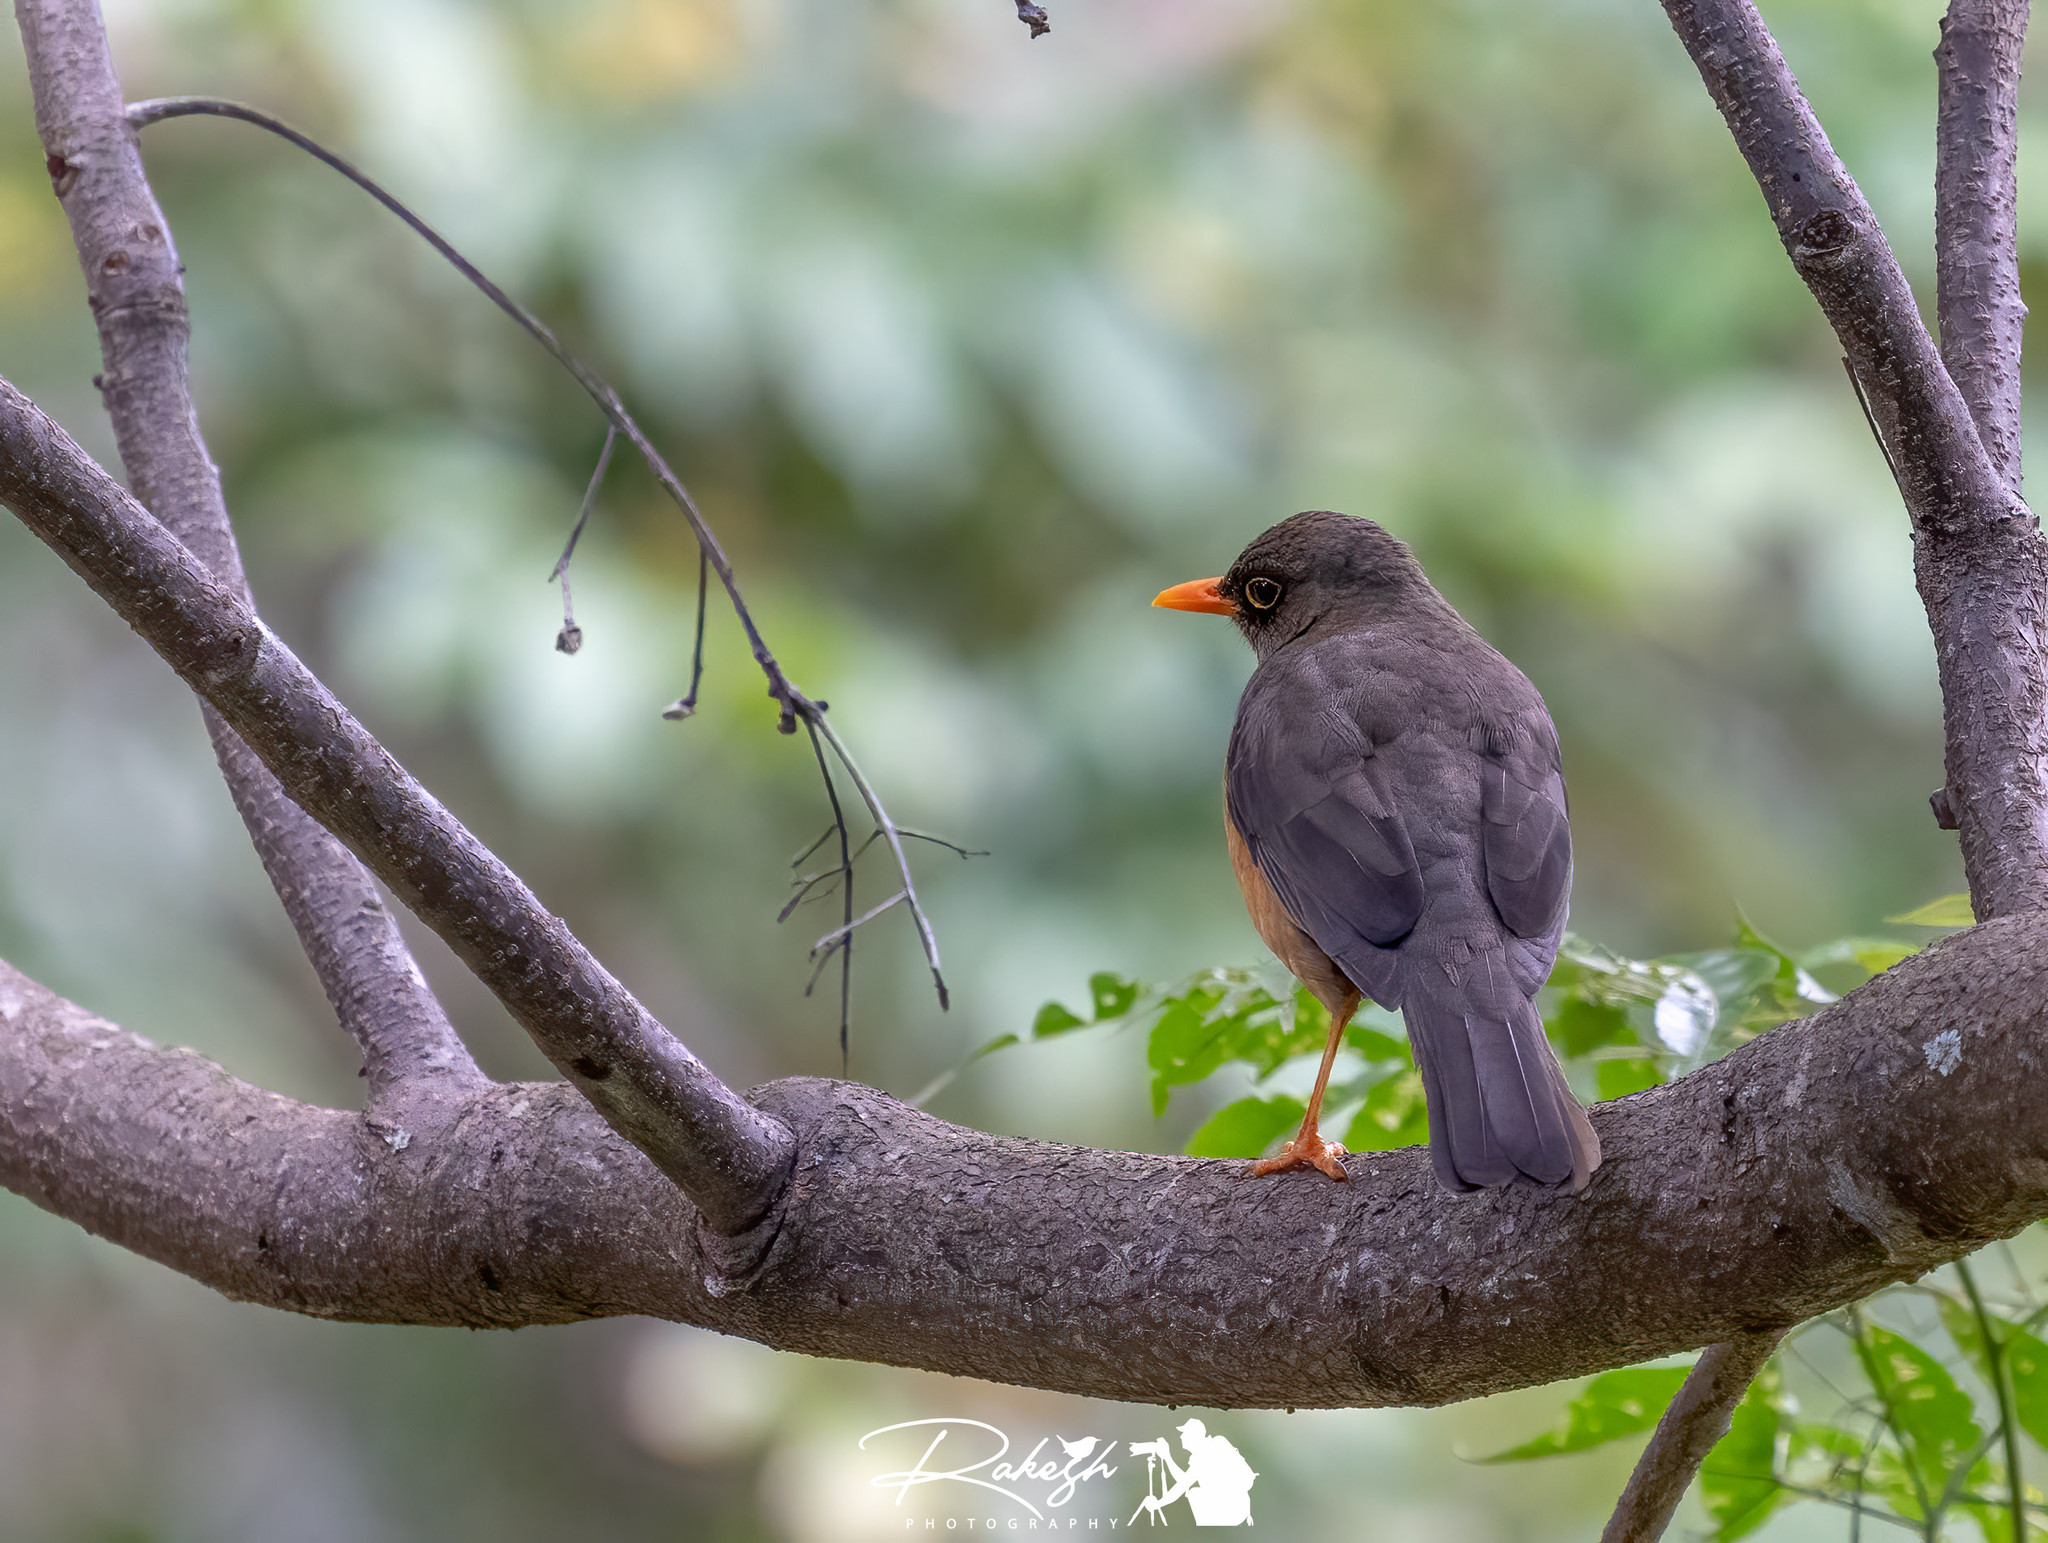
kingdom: Animalia
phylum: Chordata
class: Aves
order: Passeriformes
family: Turdidae
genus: Turdus
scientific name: Turdus abyssinicus
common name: Abyssinian thrush
